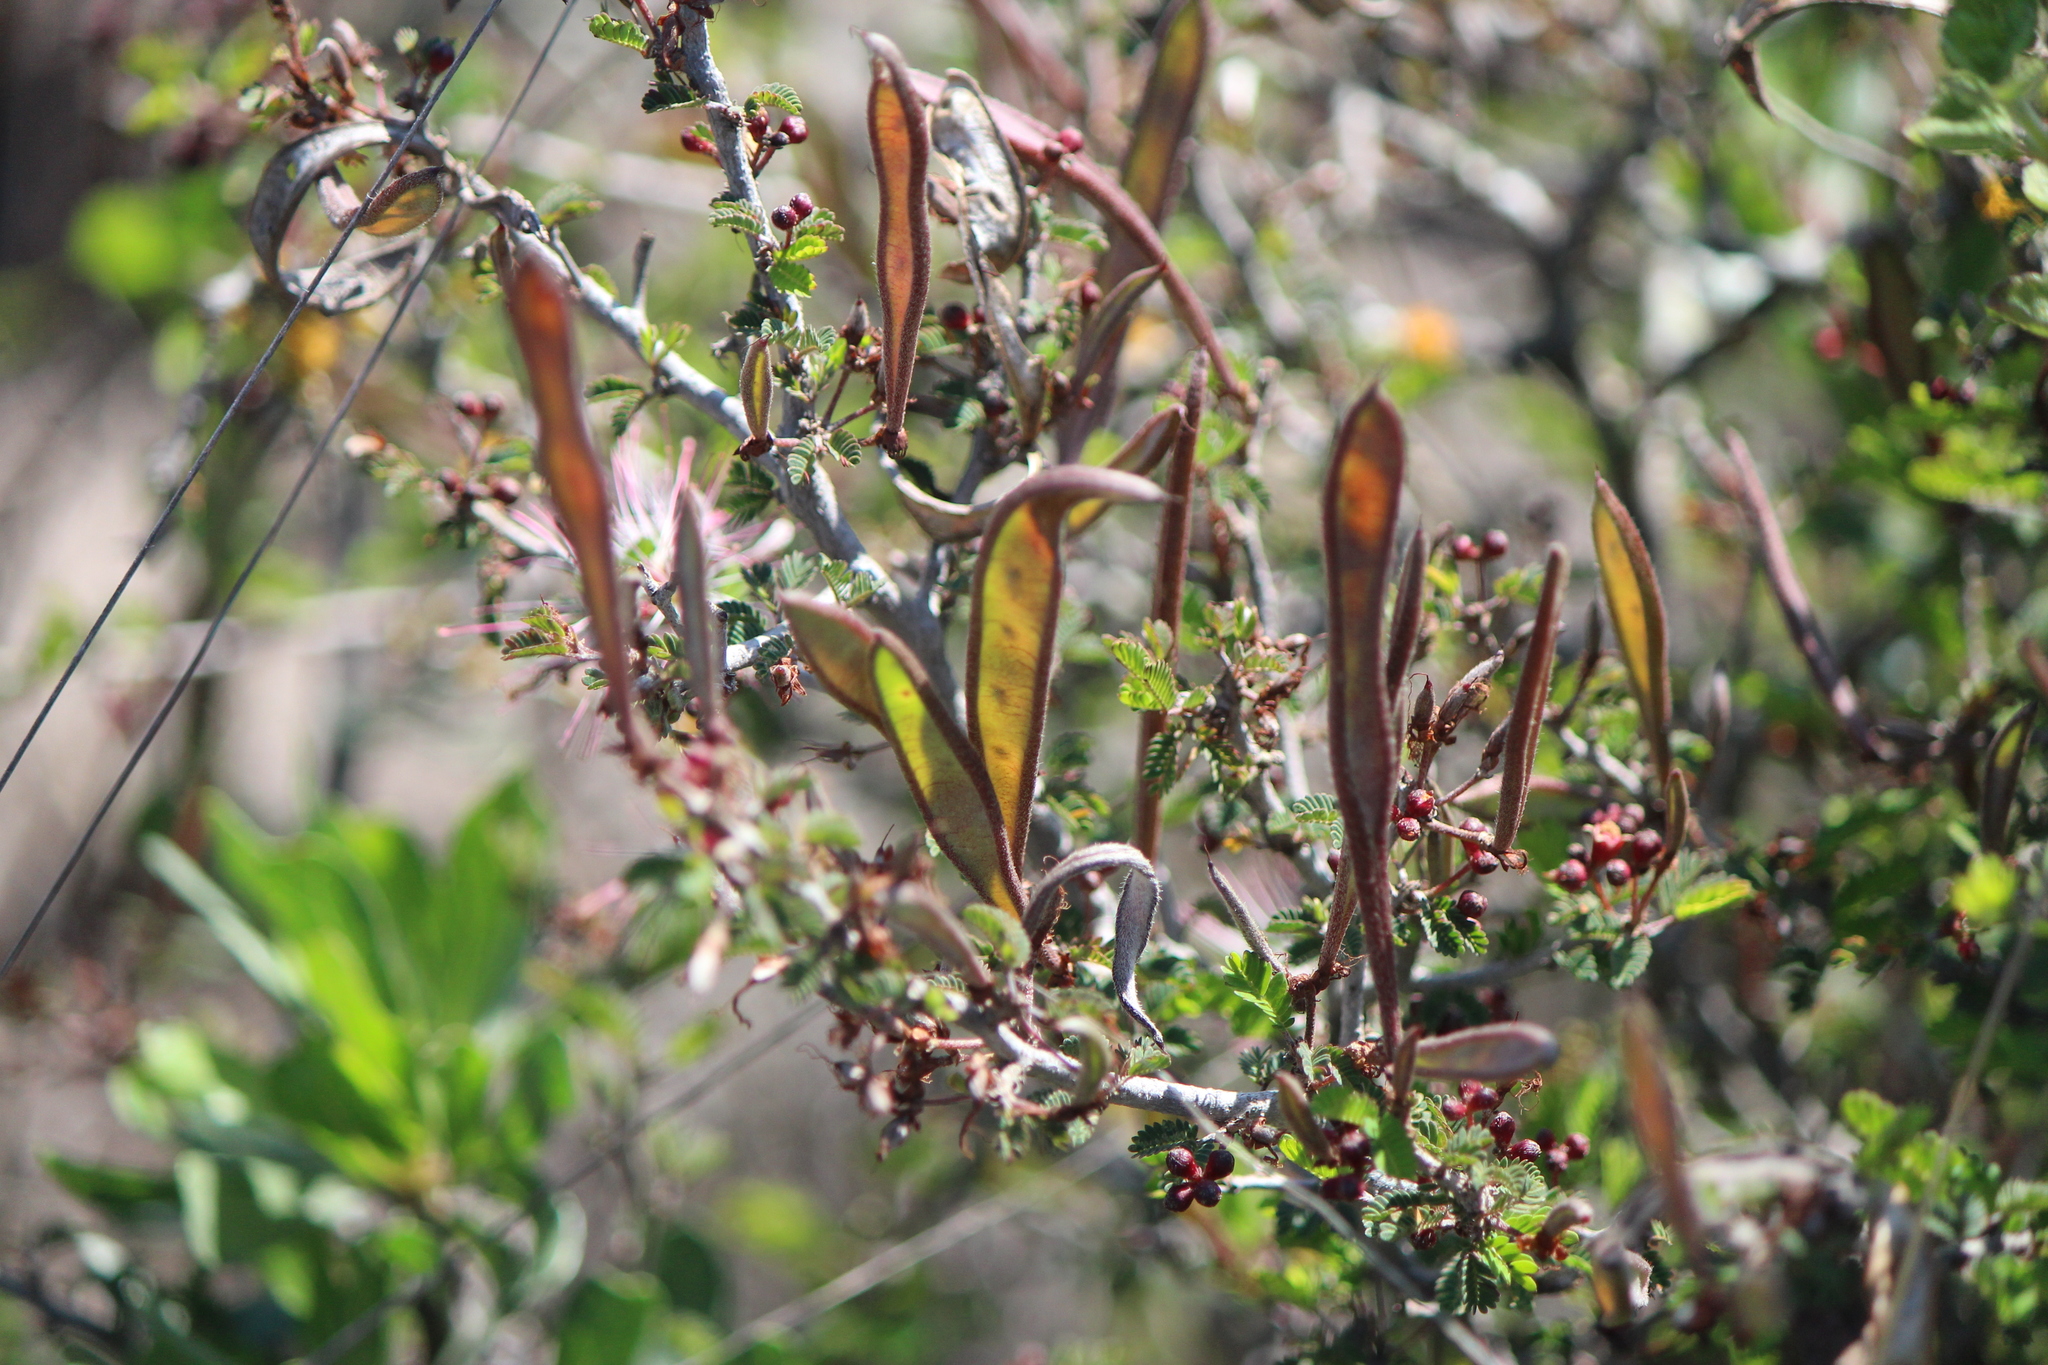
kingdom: Plantae
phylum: Tracheophyta
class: Magnoliopsida
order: Fabales
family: Fabaceae
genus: Calliandra
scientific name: Calliandra eriophylla
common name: Fairy-duster
